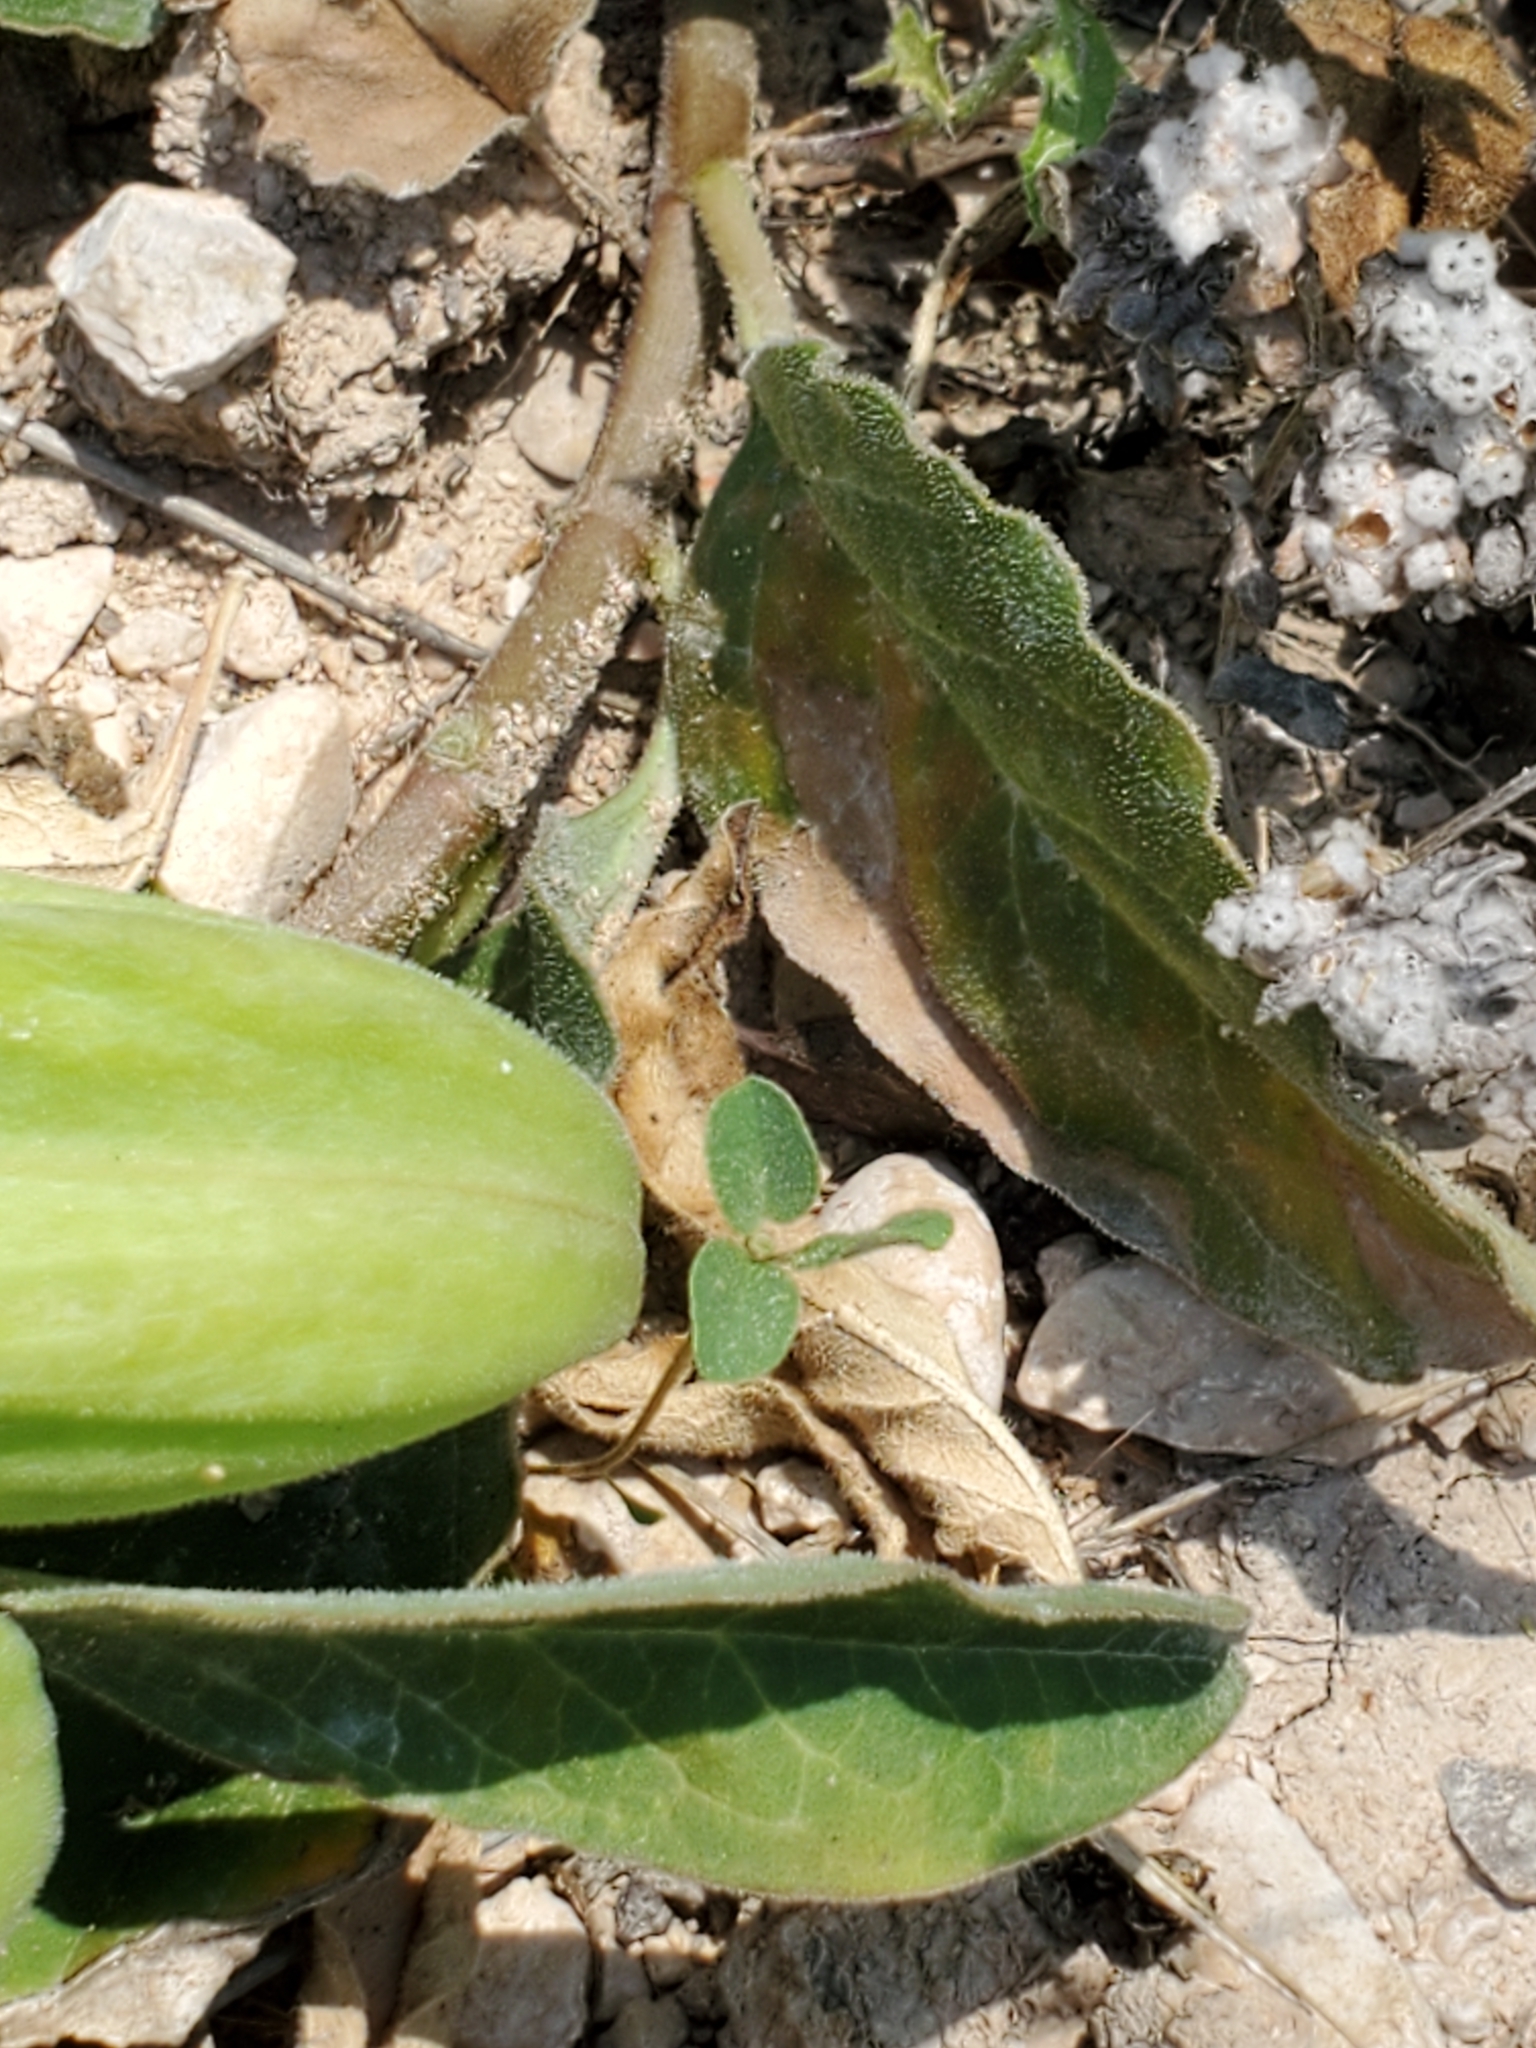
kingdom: Plantae
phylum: Tracheophyta
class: Magnoliopsida
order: Gentianales
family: Apocynaceae
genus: Asclepias
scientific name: Asclepias oenotheroides
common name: Zizotes milkweed
